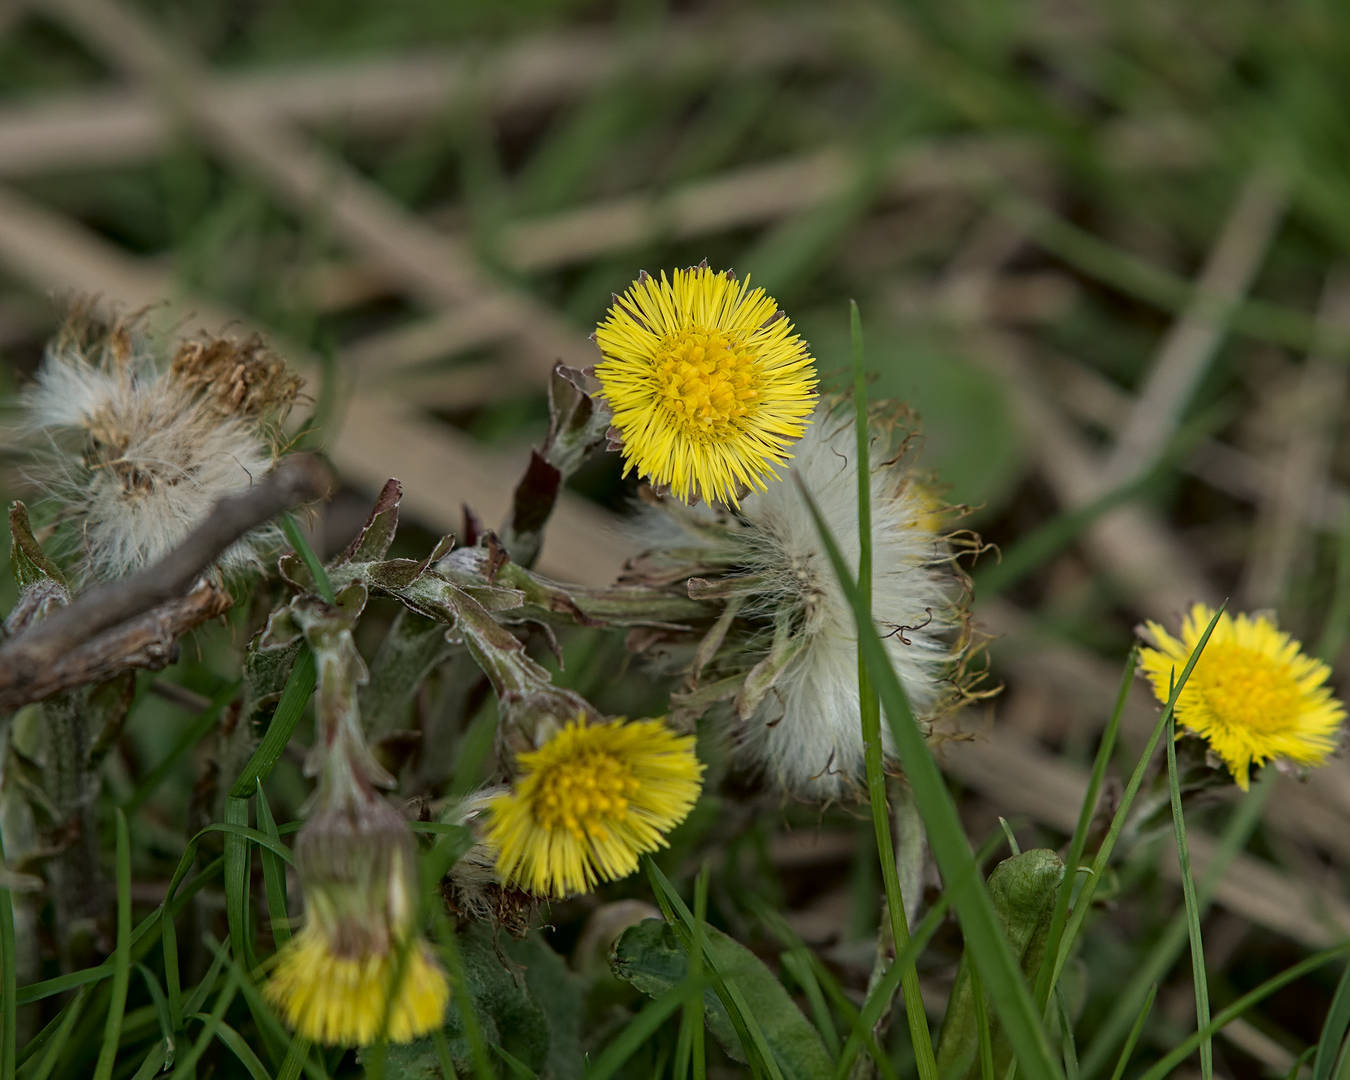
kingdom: Plantae
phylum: Tracheophyta
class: Magnoliopsida
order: Asterales
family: Asteraceae
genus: Tussilago
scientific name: Tussilago farfara
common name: Coltsfoot
